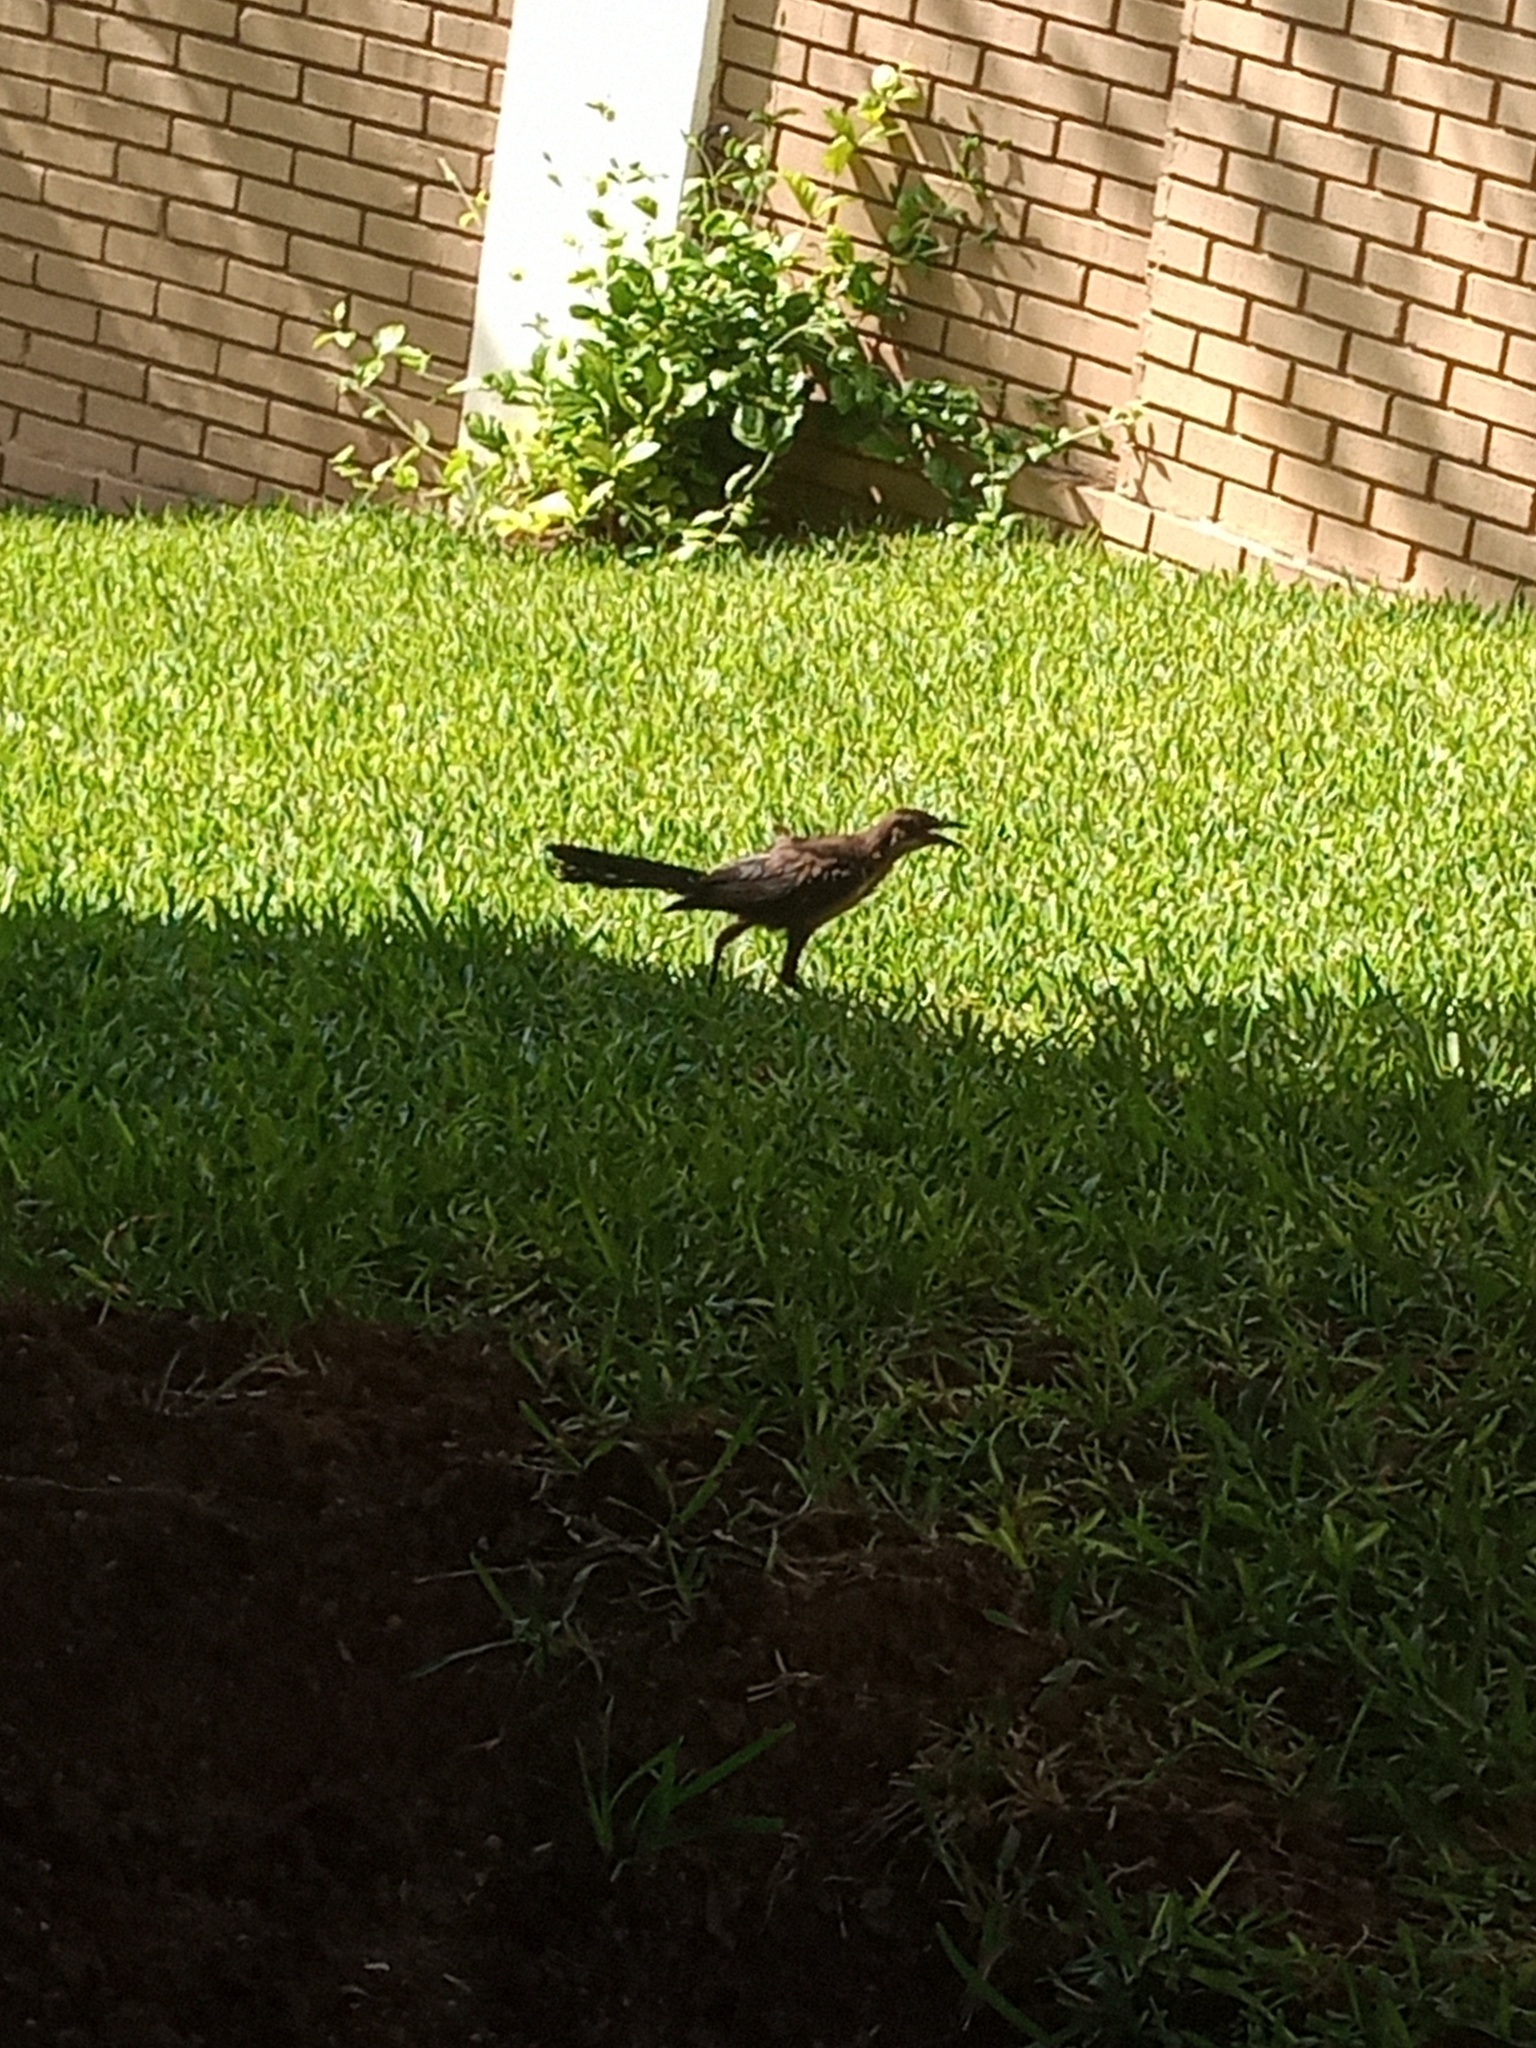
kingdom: Animalia
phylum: Chordata
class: Aves
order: Passeriformes
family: Icteridae
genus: Quiscalus
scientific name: Quiscalus mexicanus
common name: Great-tailed grackle
